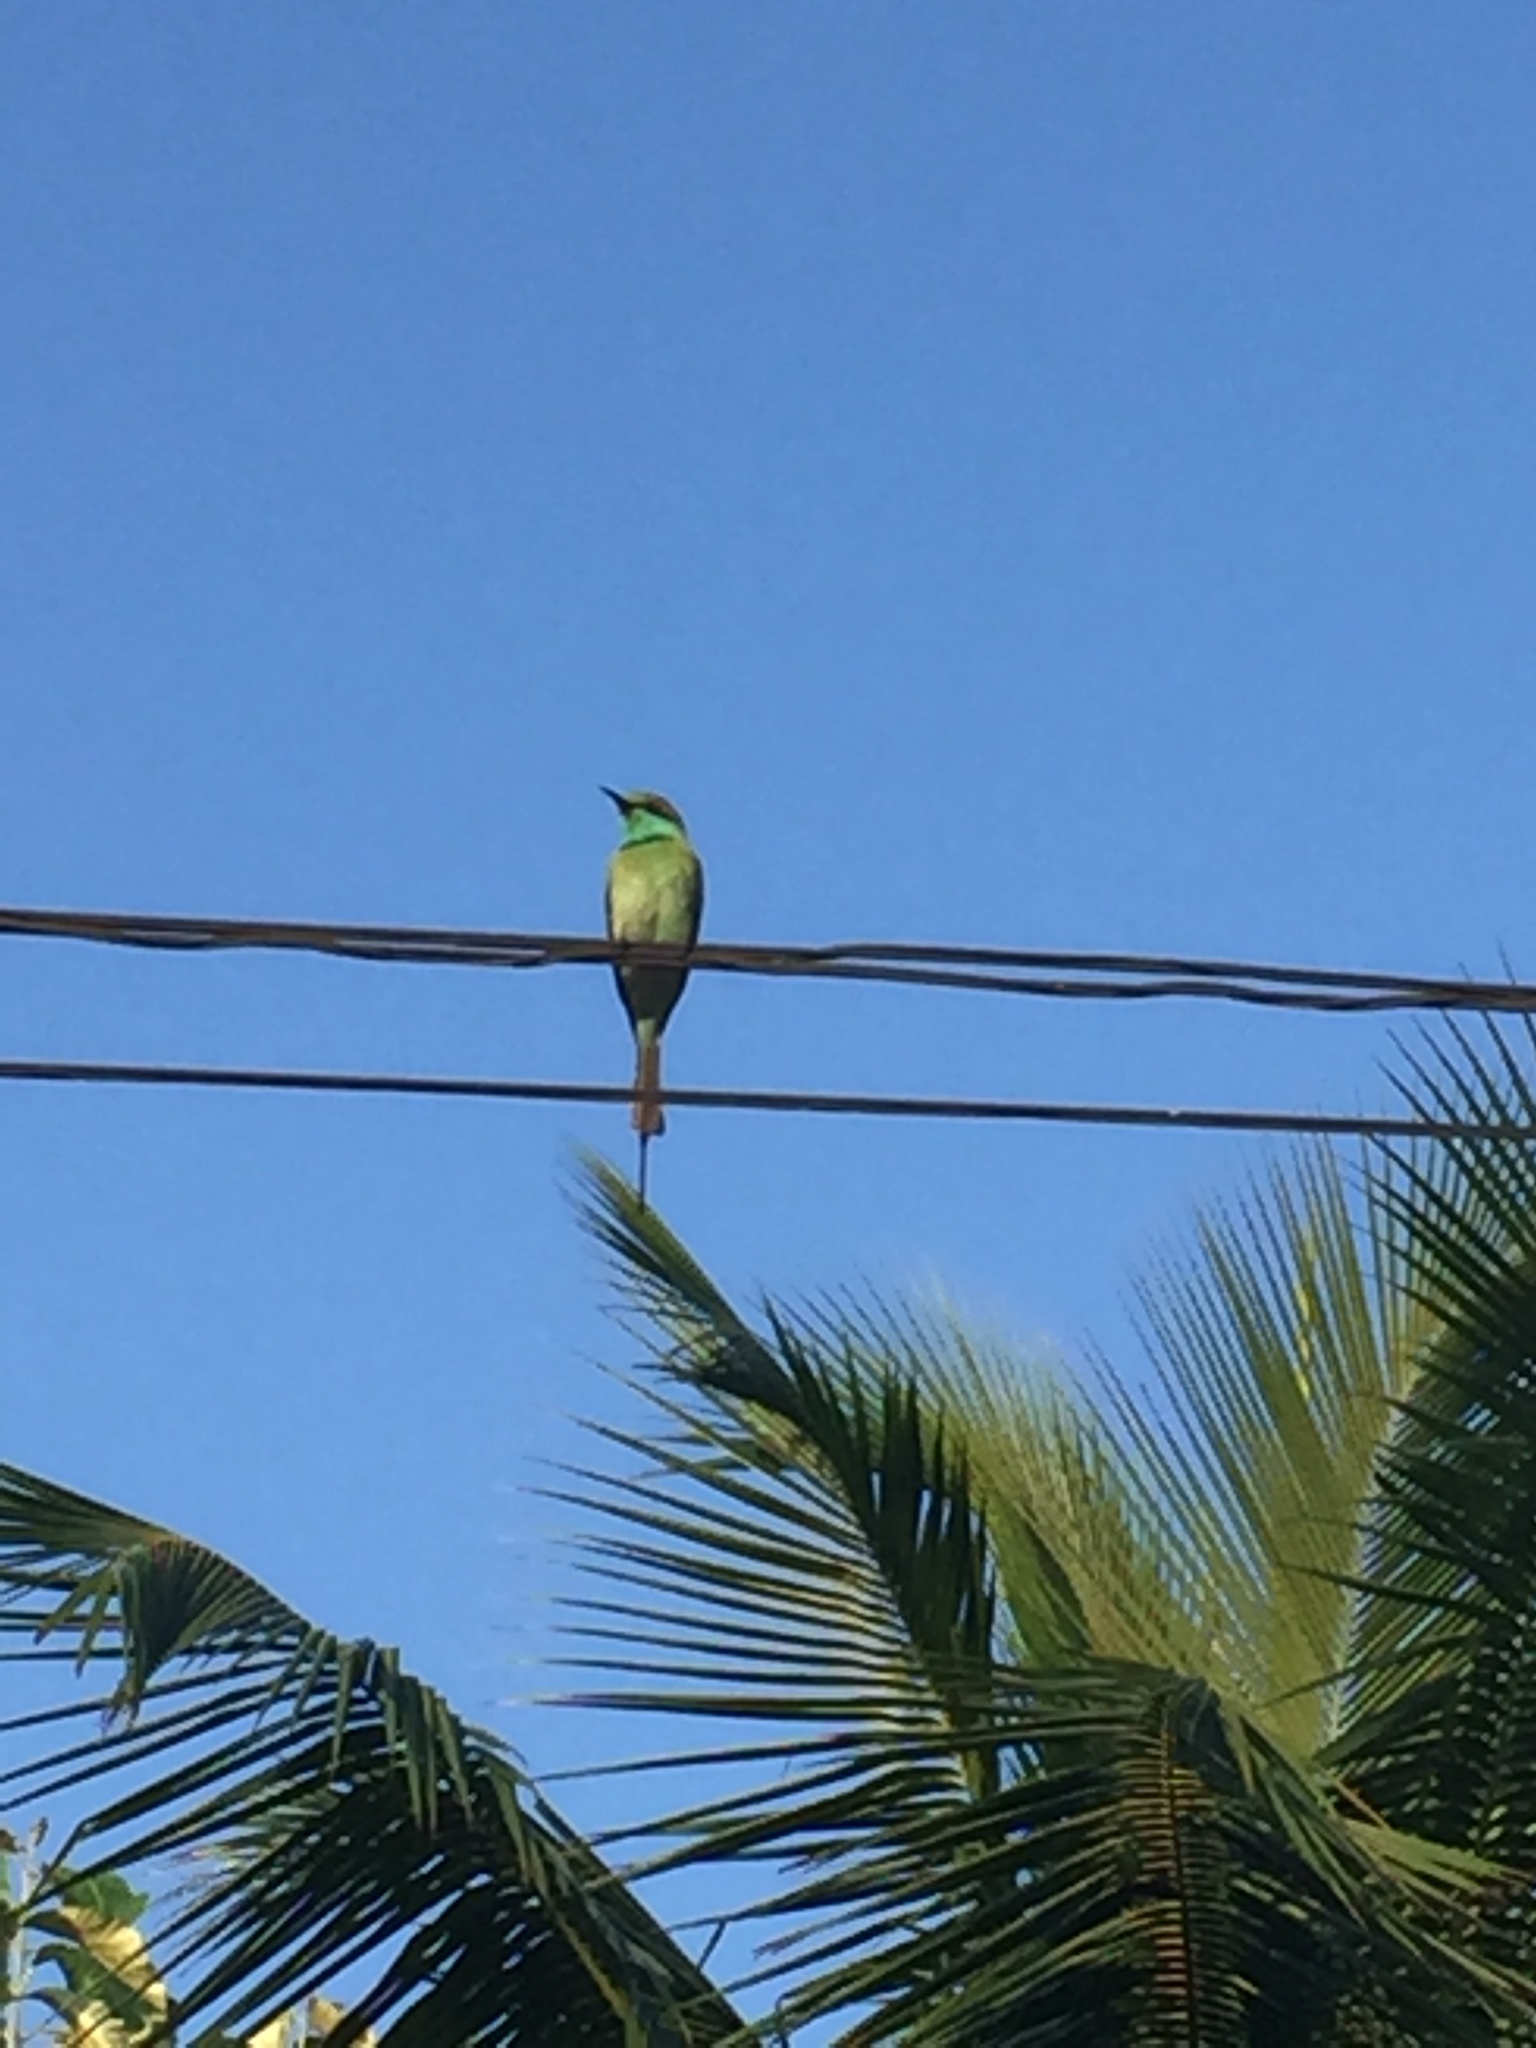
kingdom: Animalia
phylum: Chordata
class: Aves
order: Coraciiformes
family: Meropidae
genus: Merops
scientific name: Merops orientalis
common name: Green bee-eater
